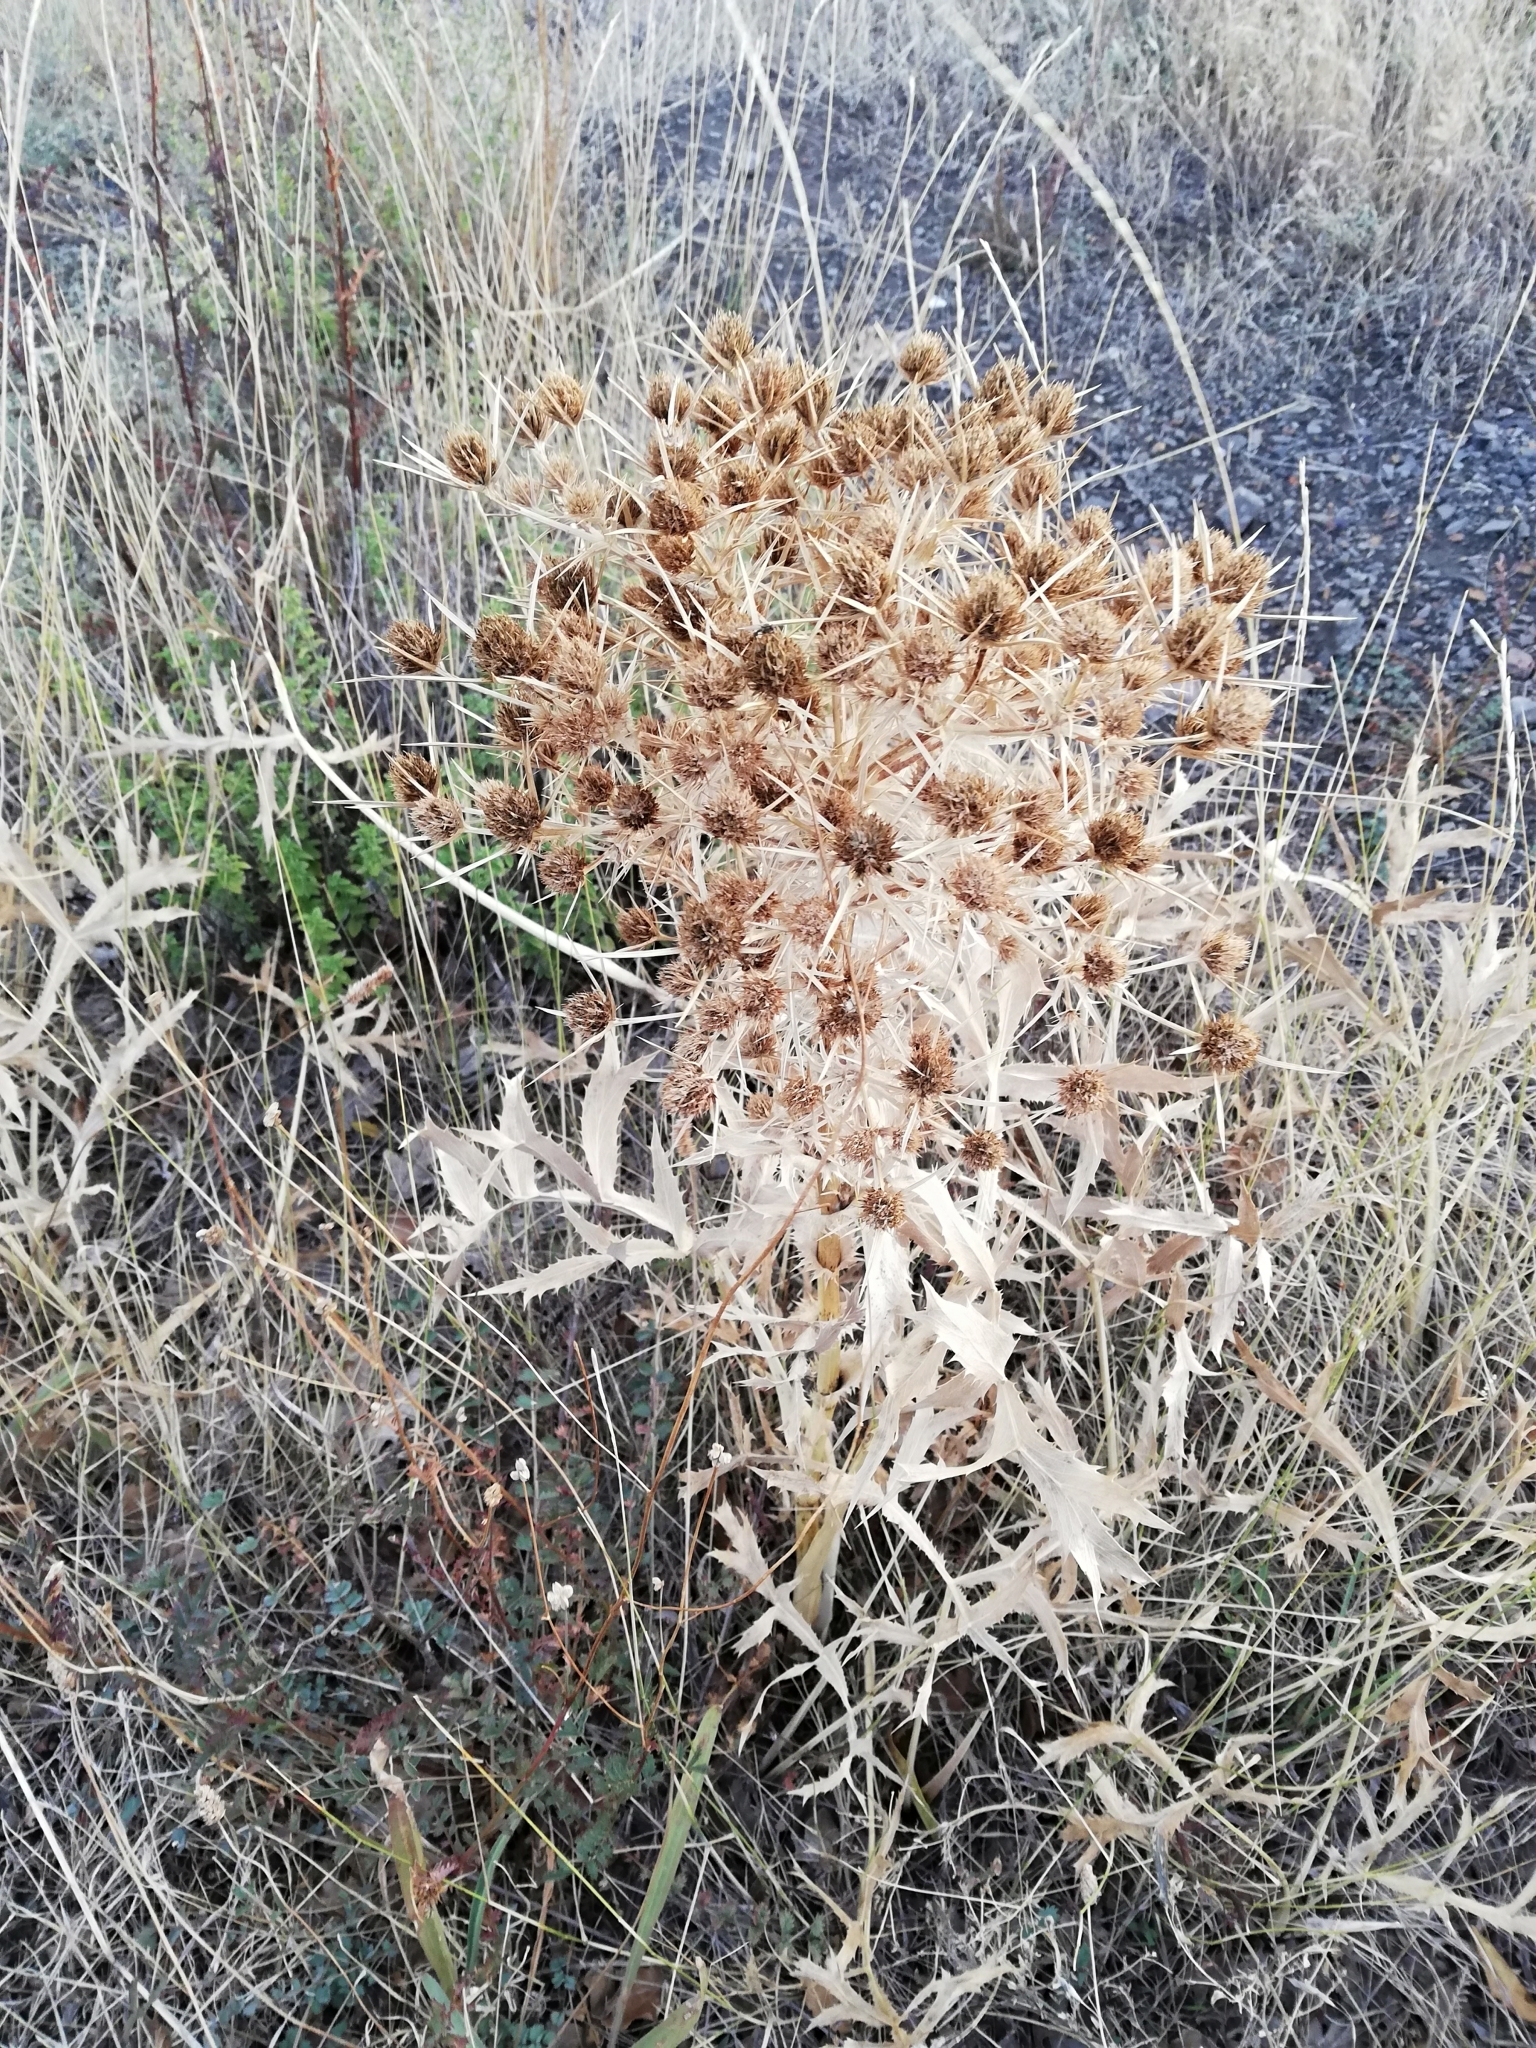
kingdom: Plantae
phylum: Tracheophyta
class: Magnoliopsida
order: Apiales
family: Apiaceae
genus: Eryngium
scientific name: Eryngium campestre
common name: Field eryngo
